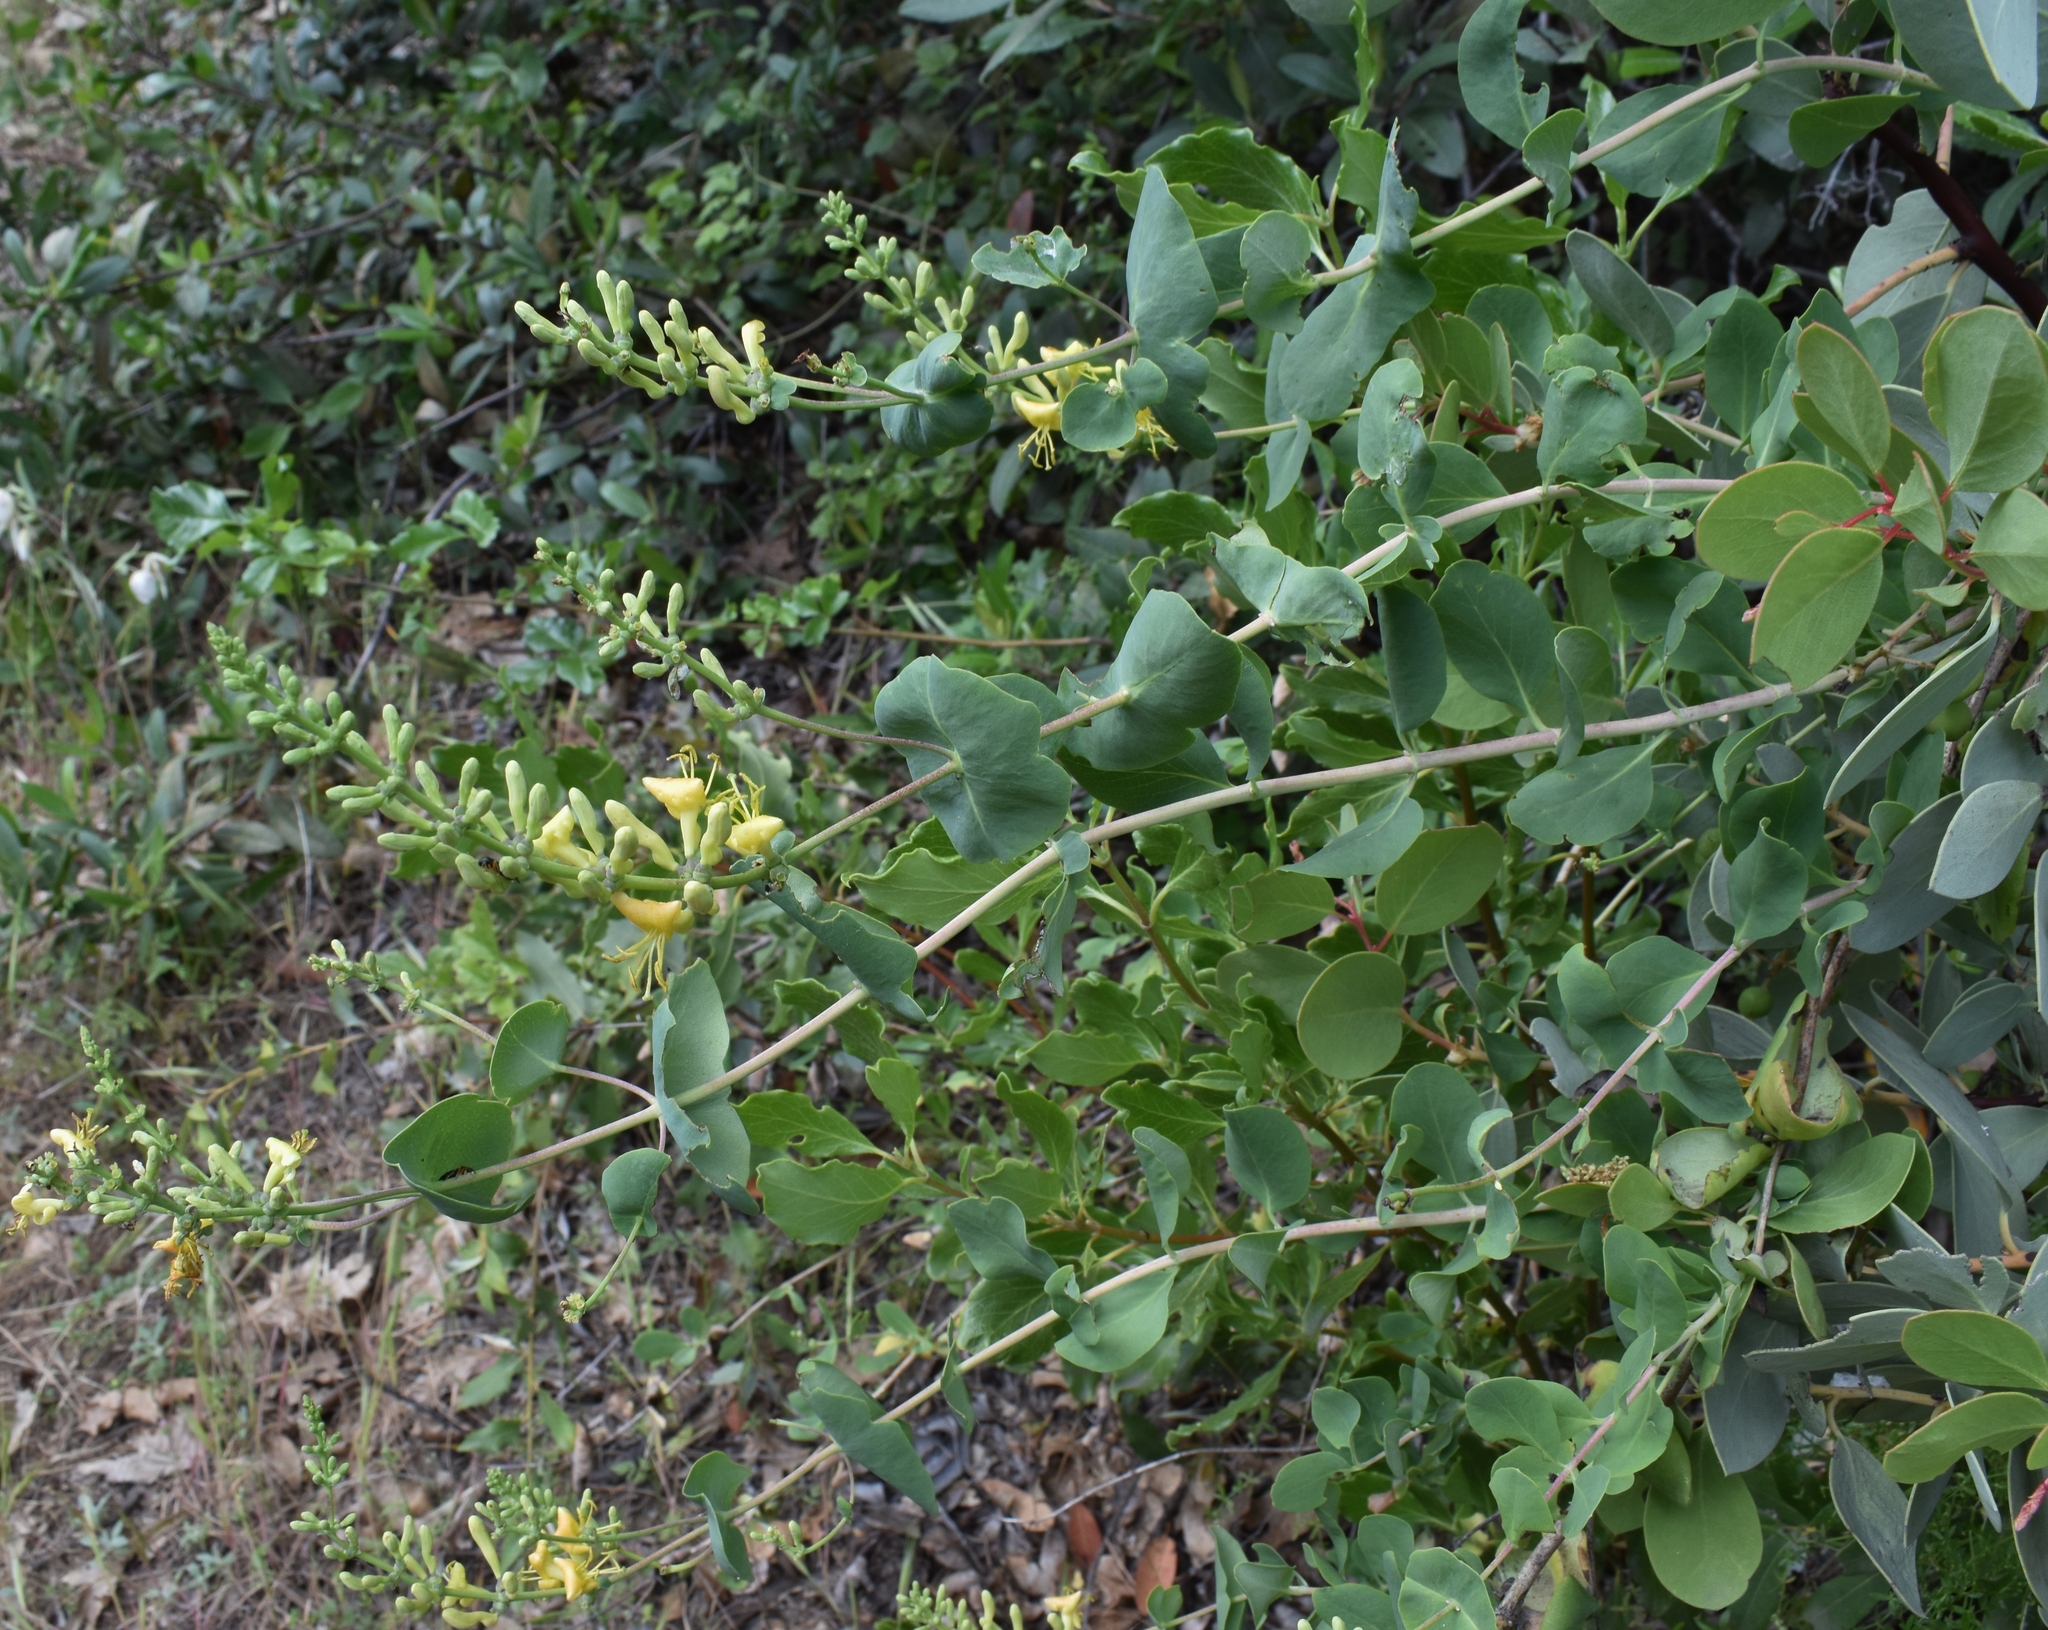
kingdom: Plantae
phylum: Tracheophyta
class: Magnoliopsida
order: Dipsacales
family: Caprifoliaceae
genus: Lonicera
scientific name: Lonicera interrupta
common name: Chaparral honeysuckle
